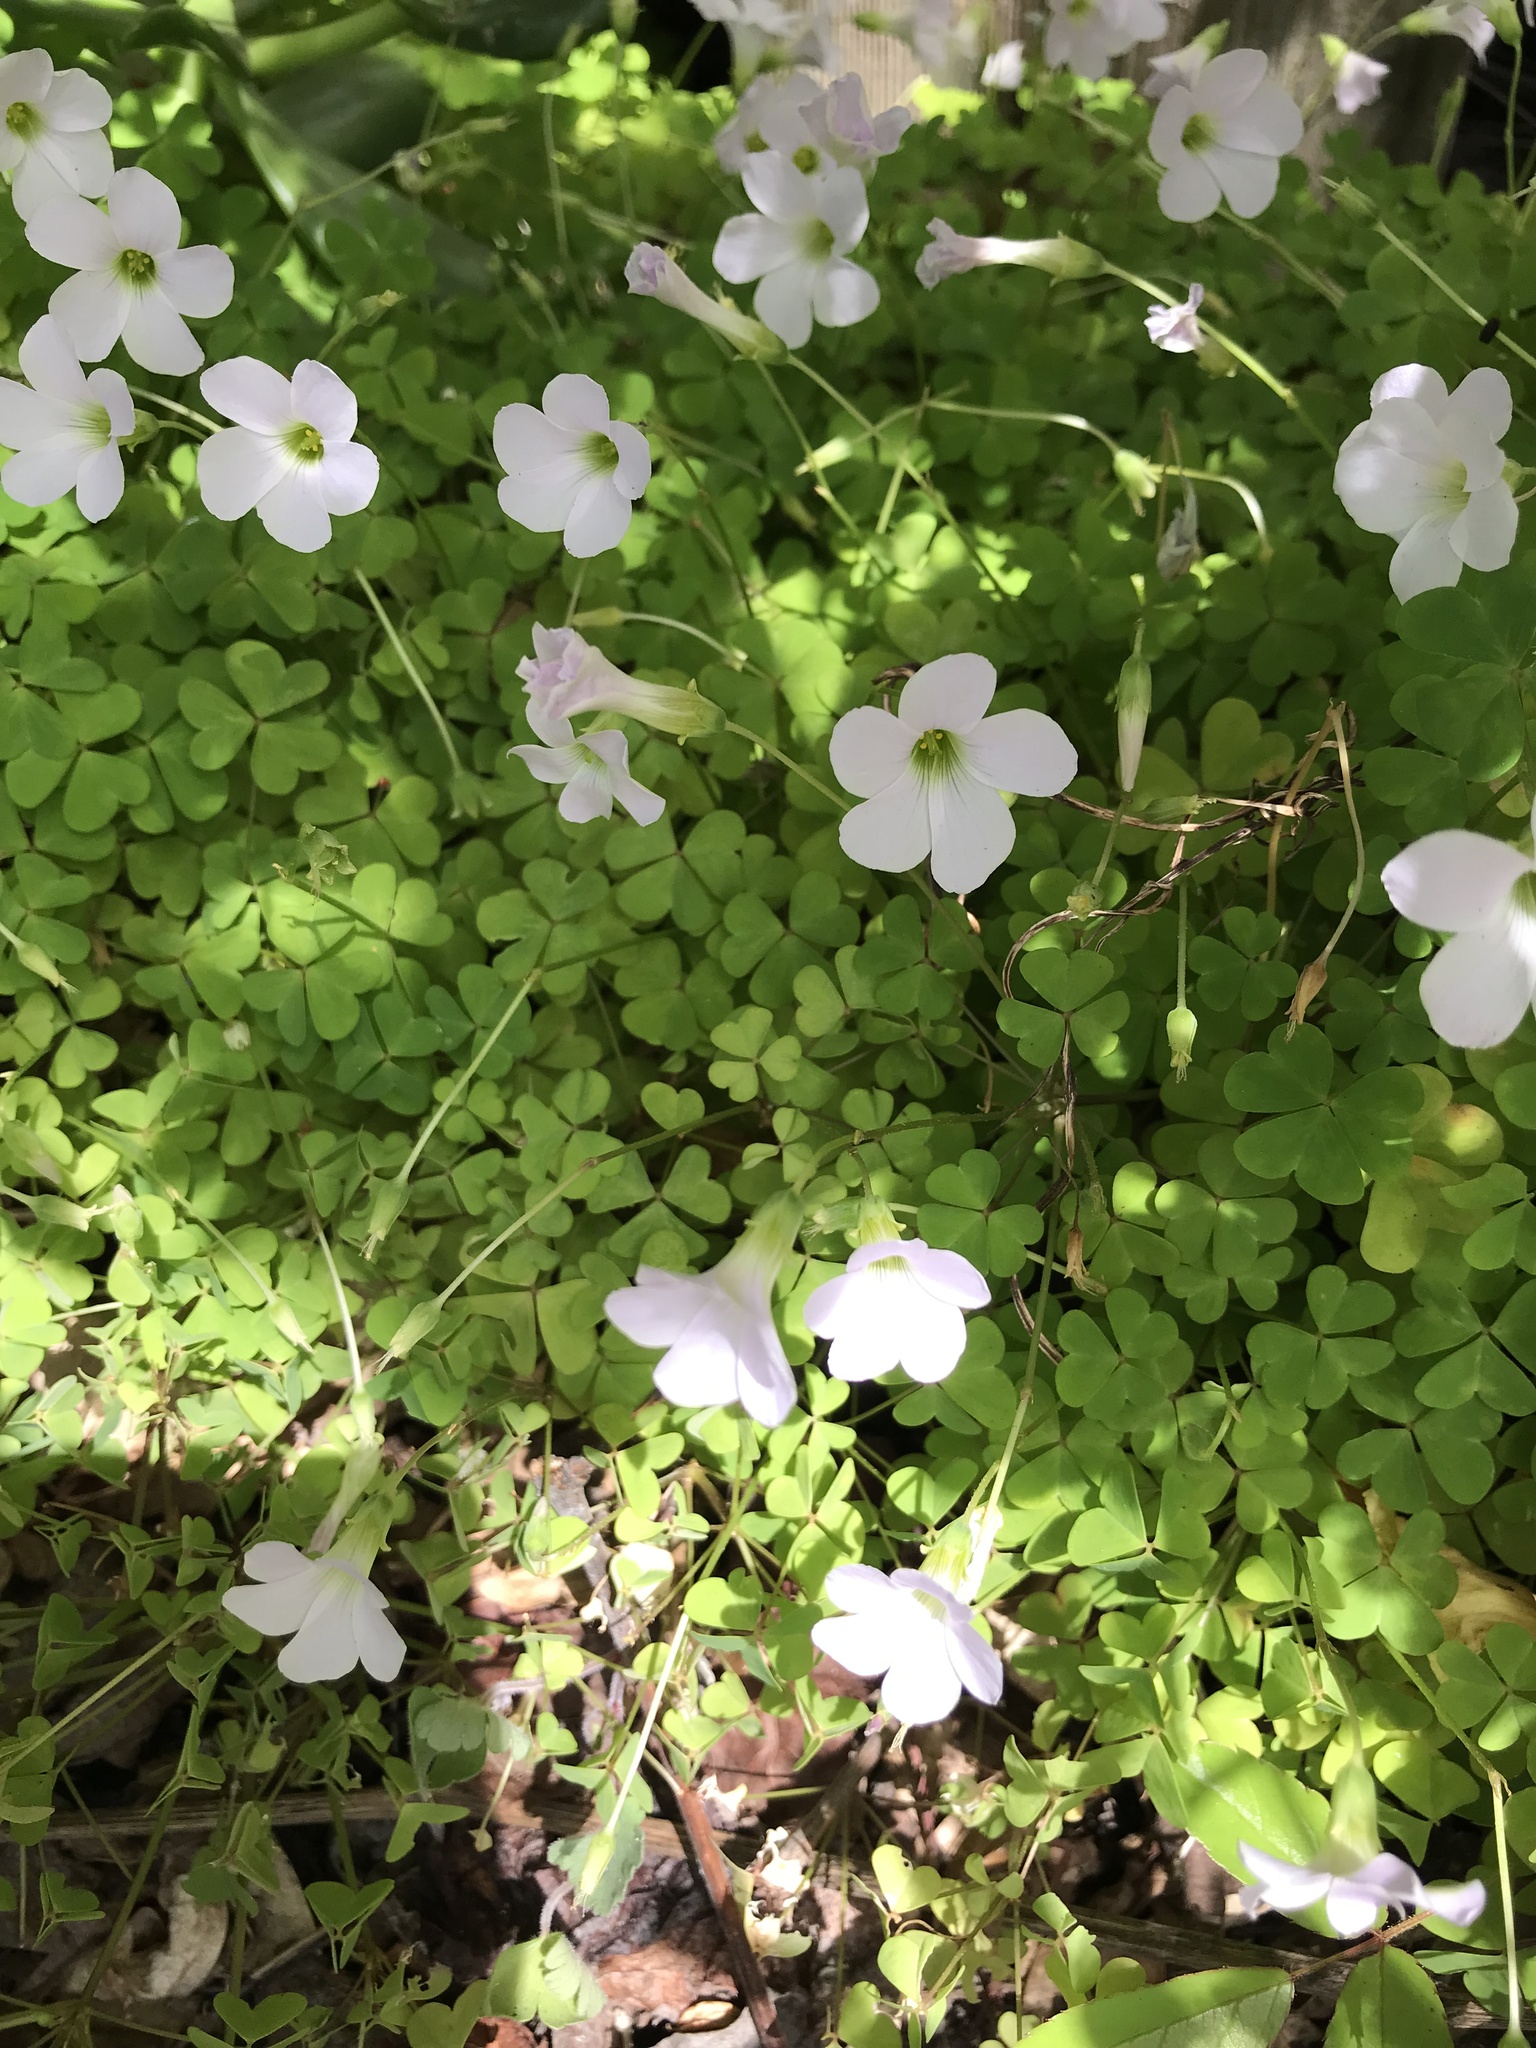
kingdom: Plantae
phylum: Tracheophyta
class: Magnoliopsida
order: Oxalidales
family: Oxalidaceae
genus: Oxalis
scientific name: Oxalis incarnata
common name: Pale pink-sorrel
